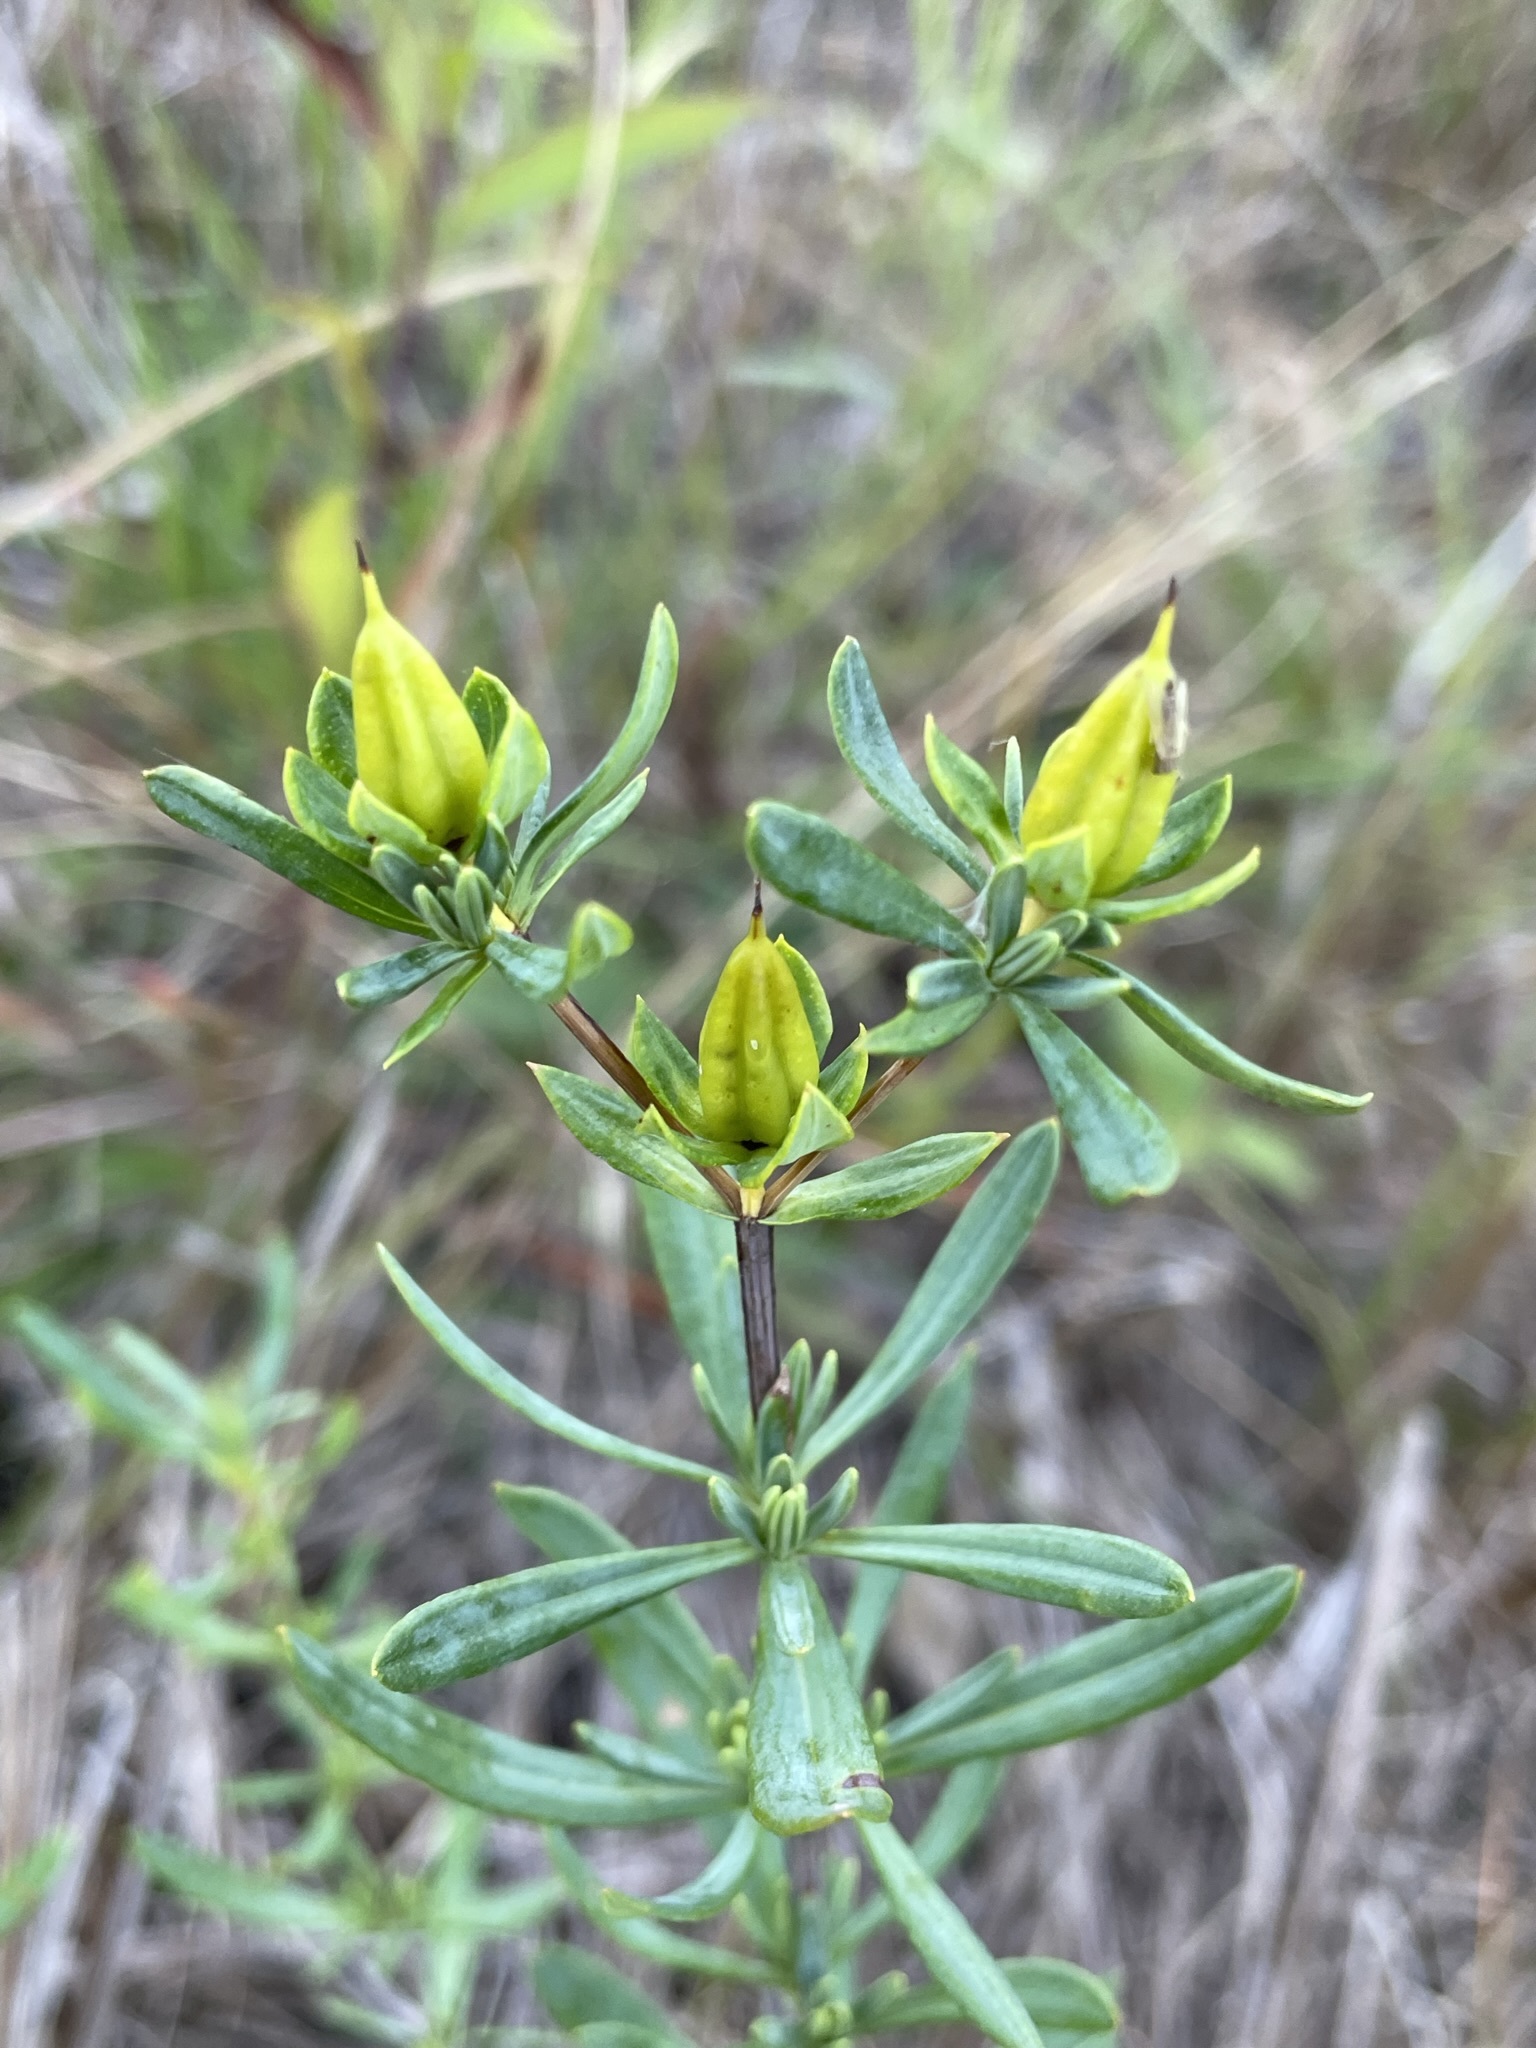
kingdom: Plantae
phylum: Tracheophyta
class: Magnoliopsida
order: Malpighiales
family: Hypericaceae
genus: Hypericum
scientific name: Hypericum kalmianum
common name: Kalm's st. john's-wort
